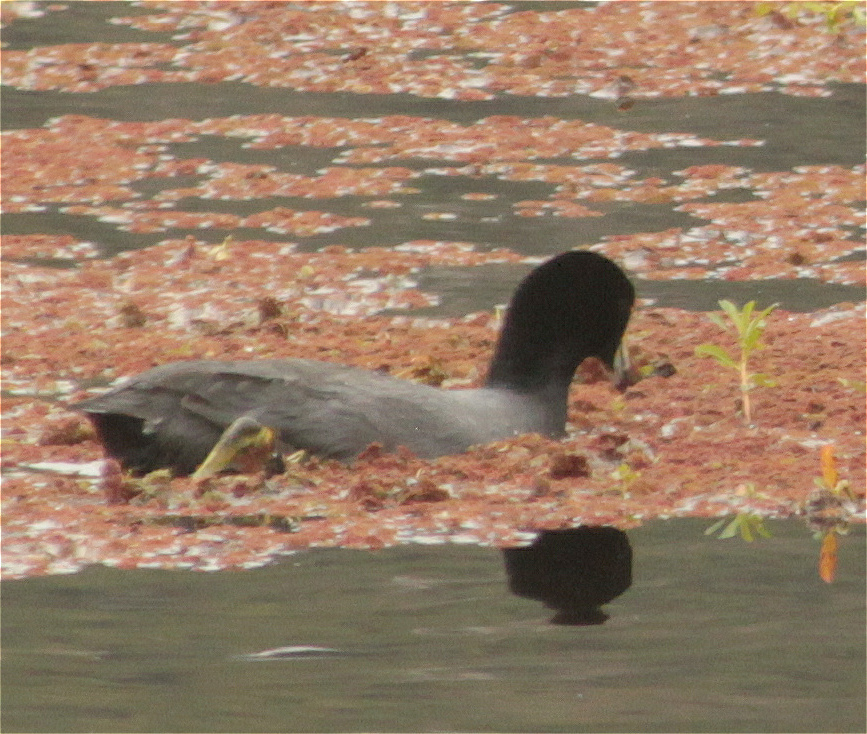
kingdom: Animalia
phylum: Chordata
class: Aves
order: Gruiformes
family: Rallidae
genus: Fulica
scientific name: Fulica americana
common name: American coot
